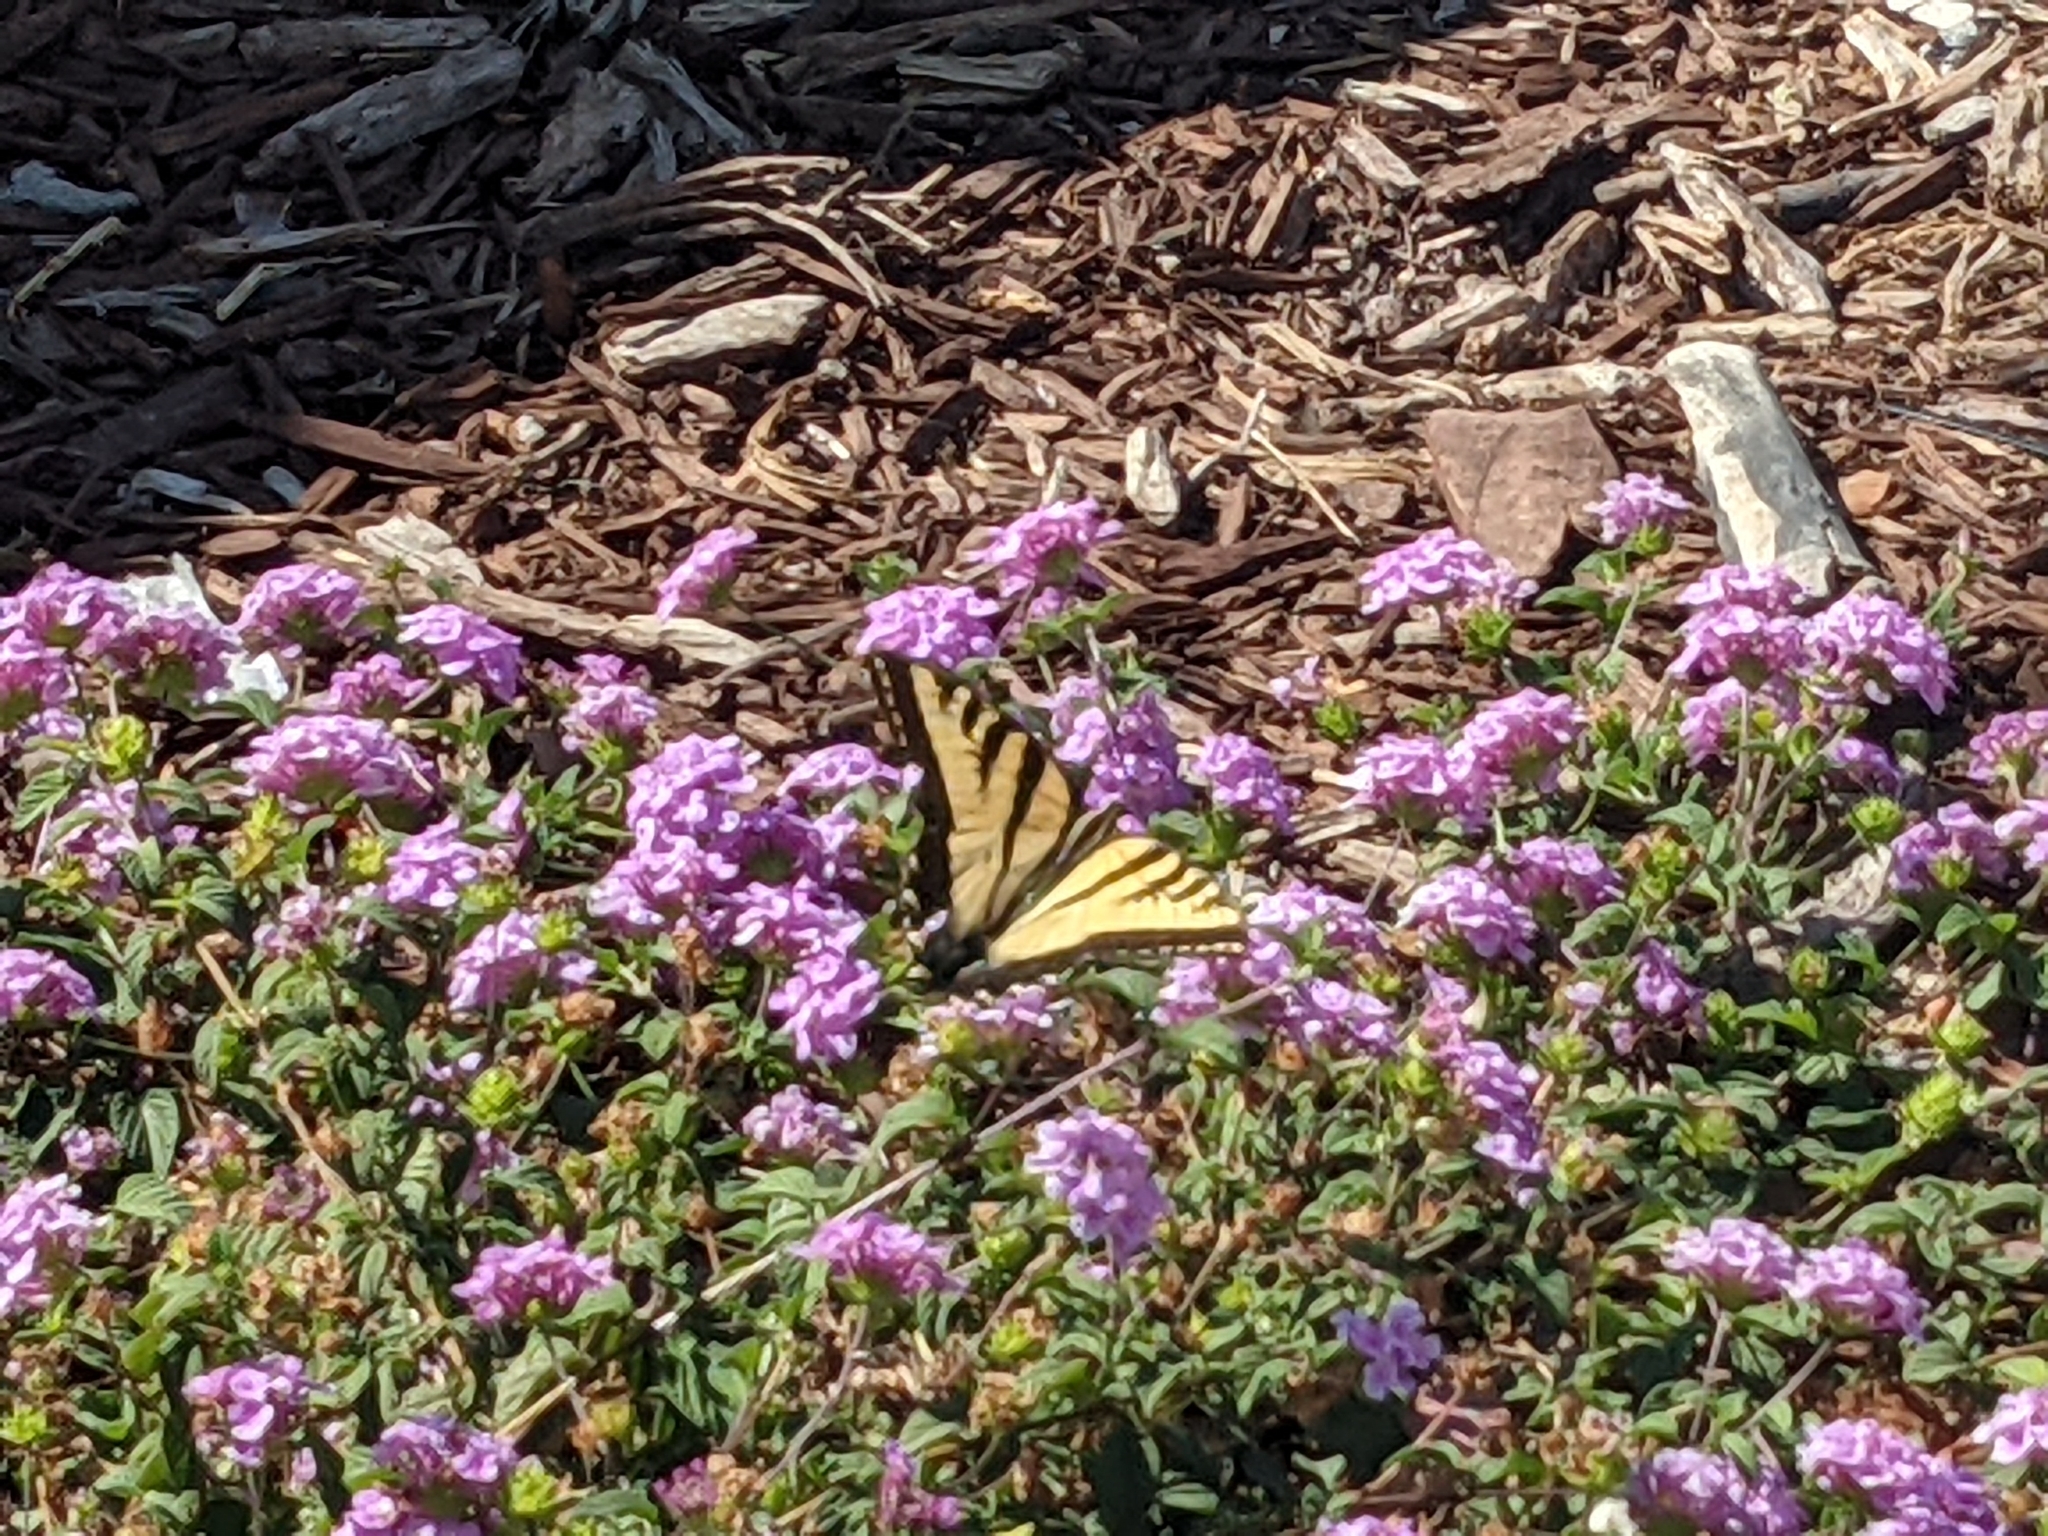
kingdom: Animalia
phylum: Arthropoda
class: Insecta
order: Lepidoptera
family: Papilionidae
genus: Papilio
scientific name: Papilio rutulus
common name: Western tiger swallowtail
